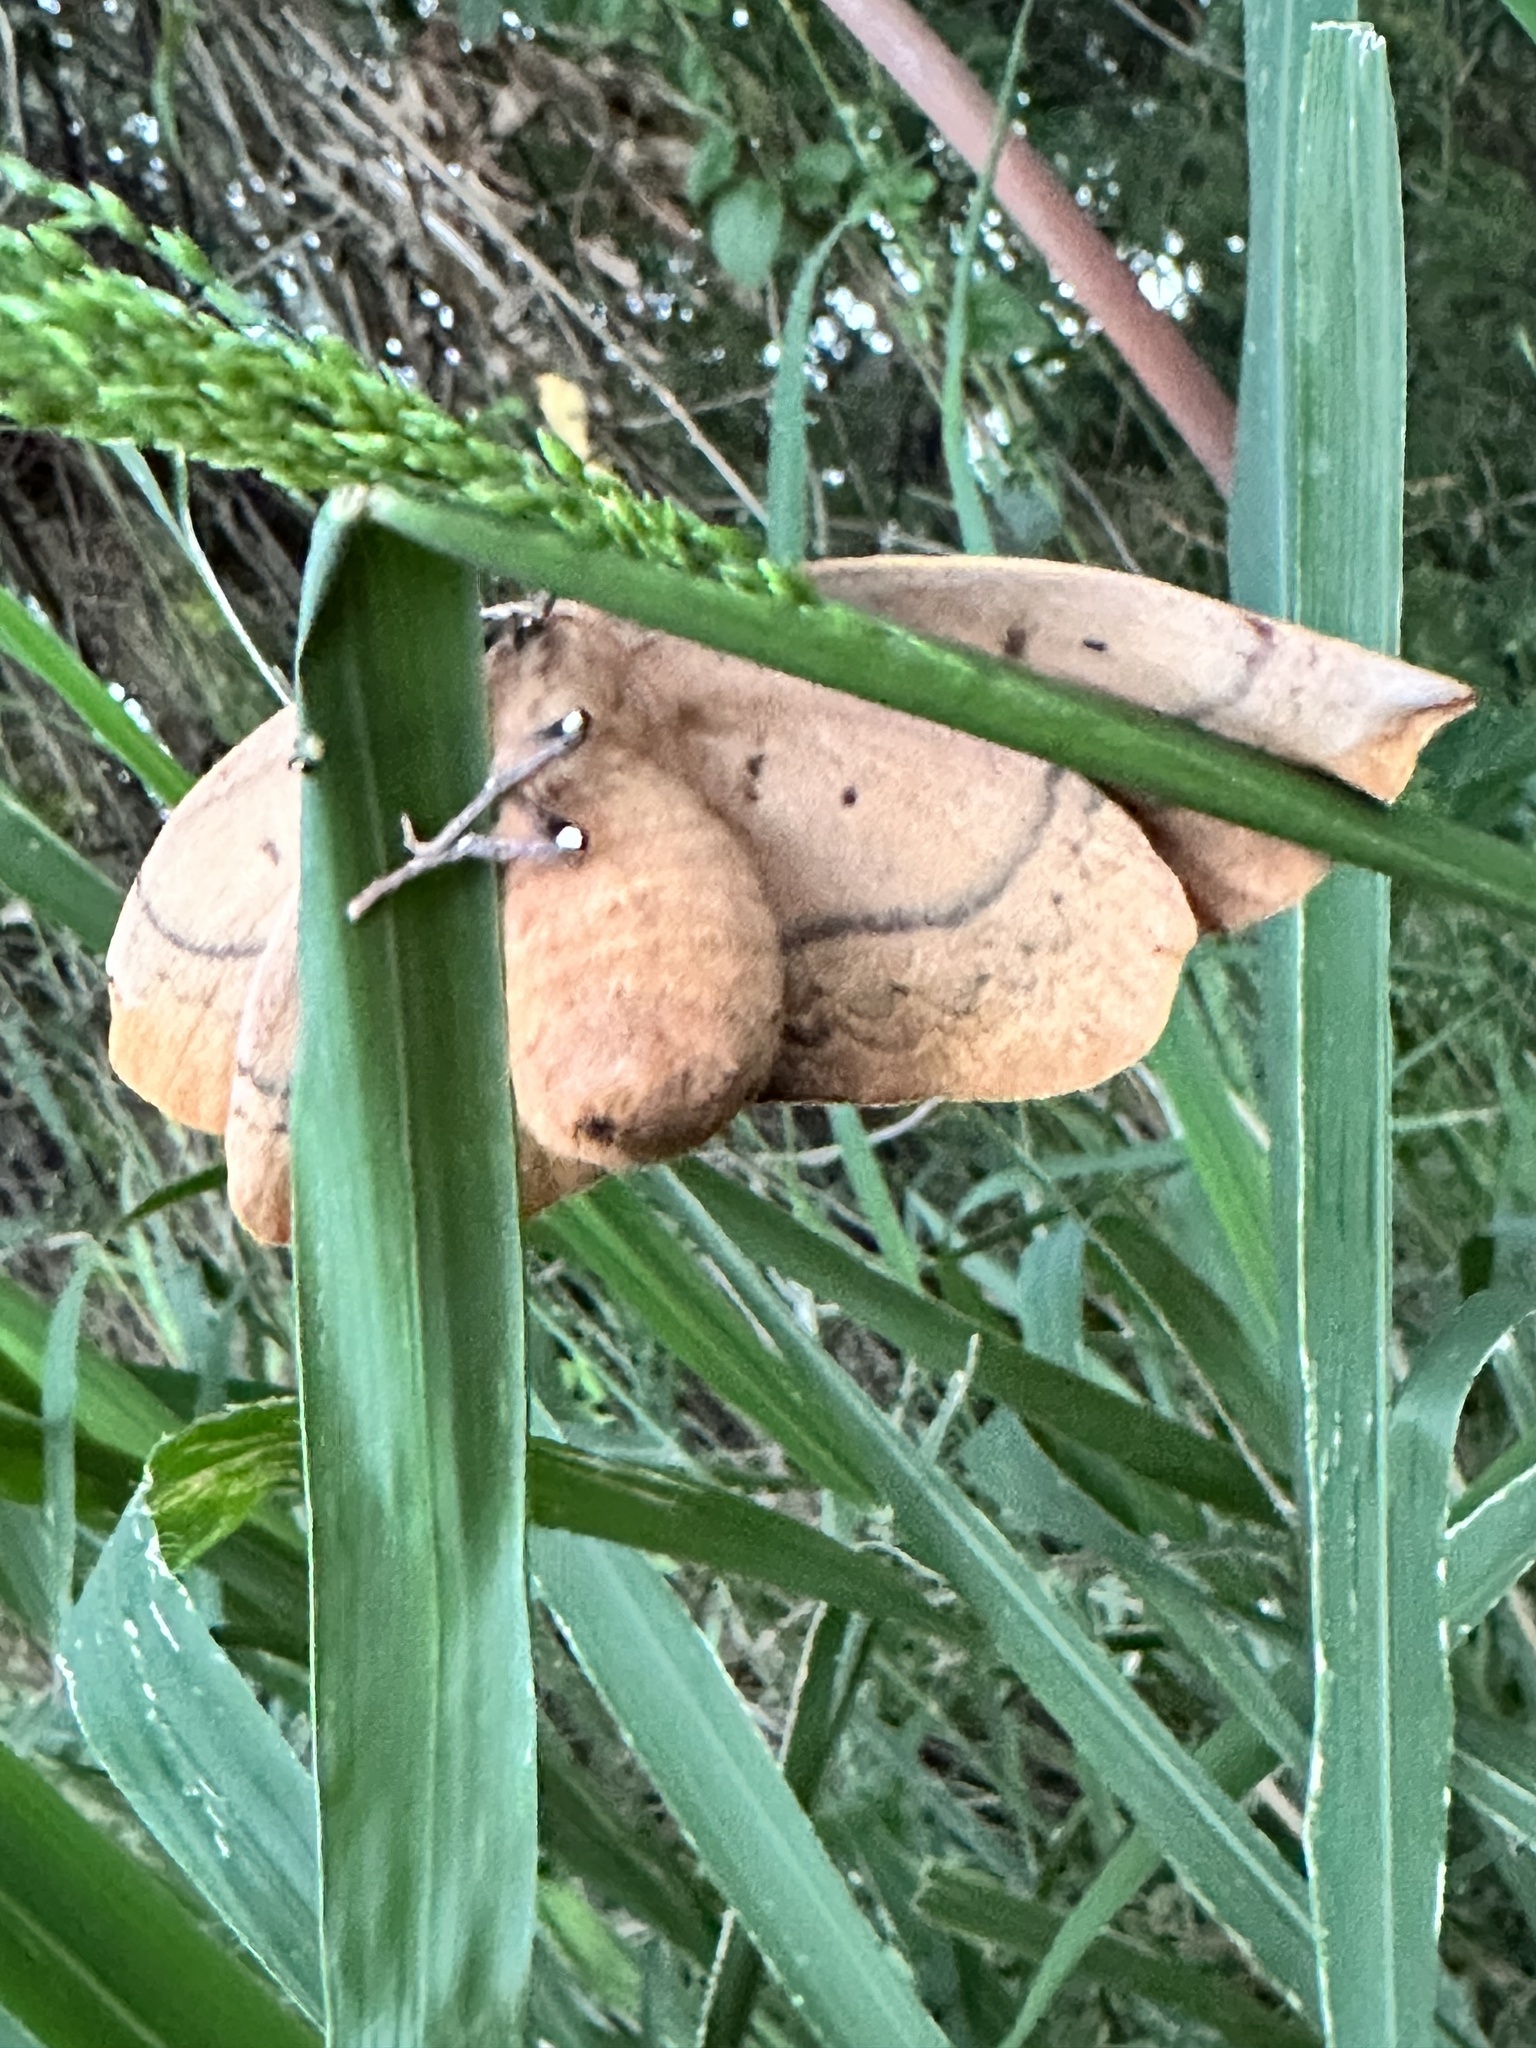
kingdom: Animalia
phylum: Arthropoda
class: Insecta
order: Lepidoptera
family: Anthelidae
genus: Anthela
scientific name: Anthela varia
